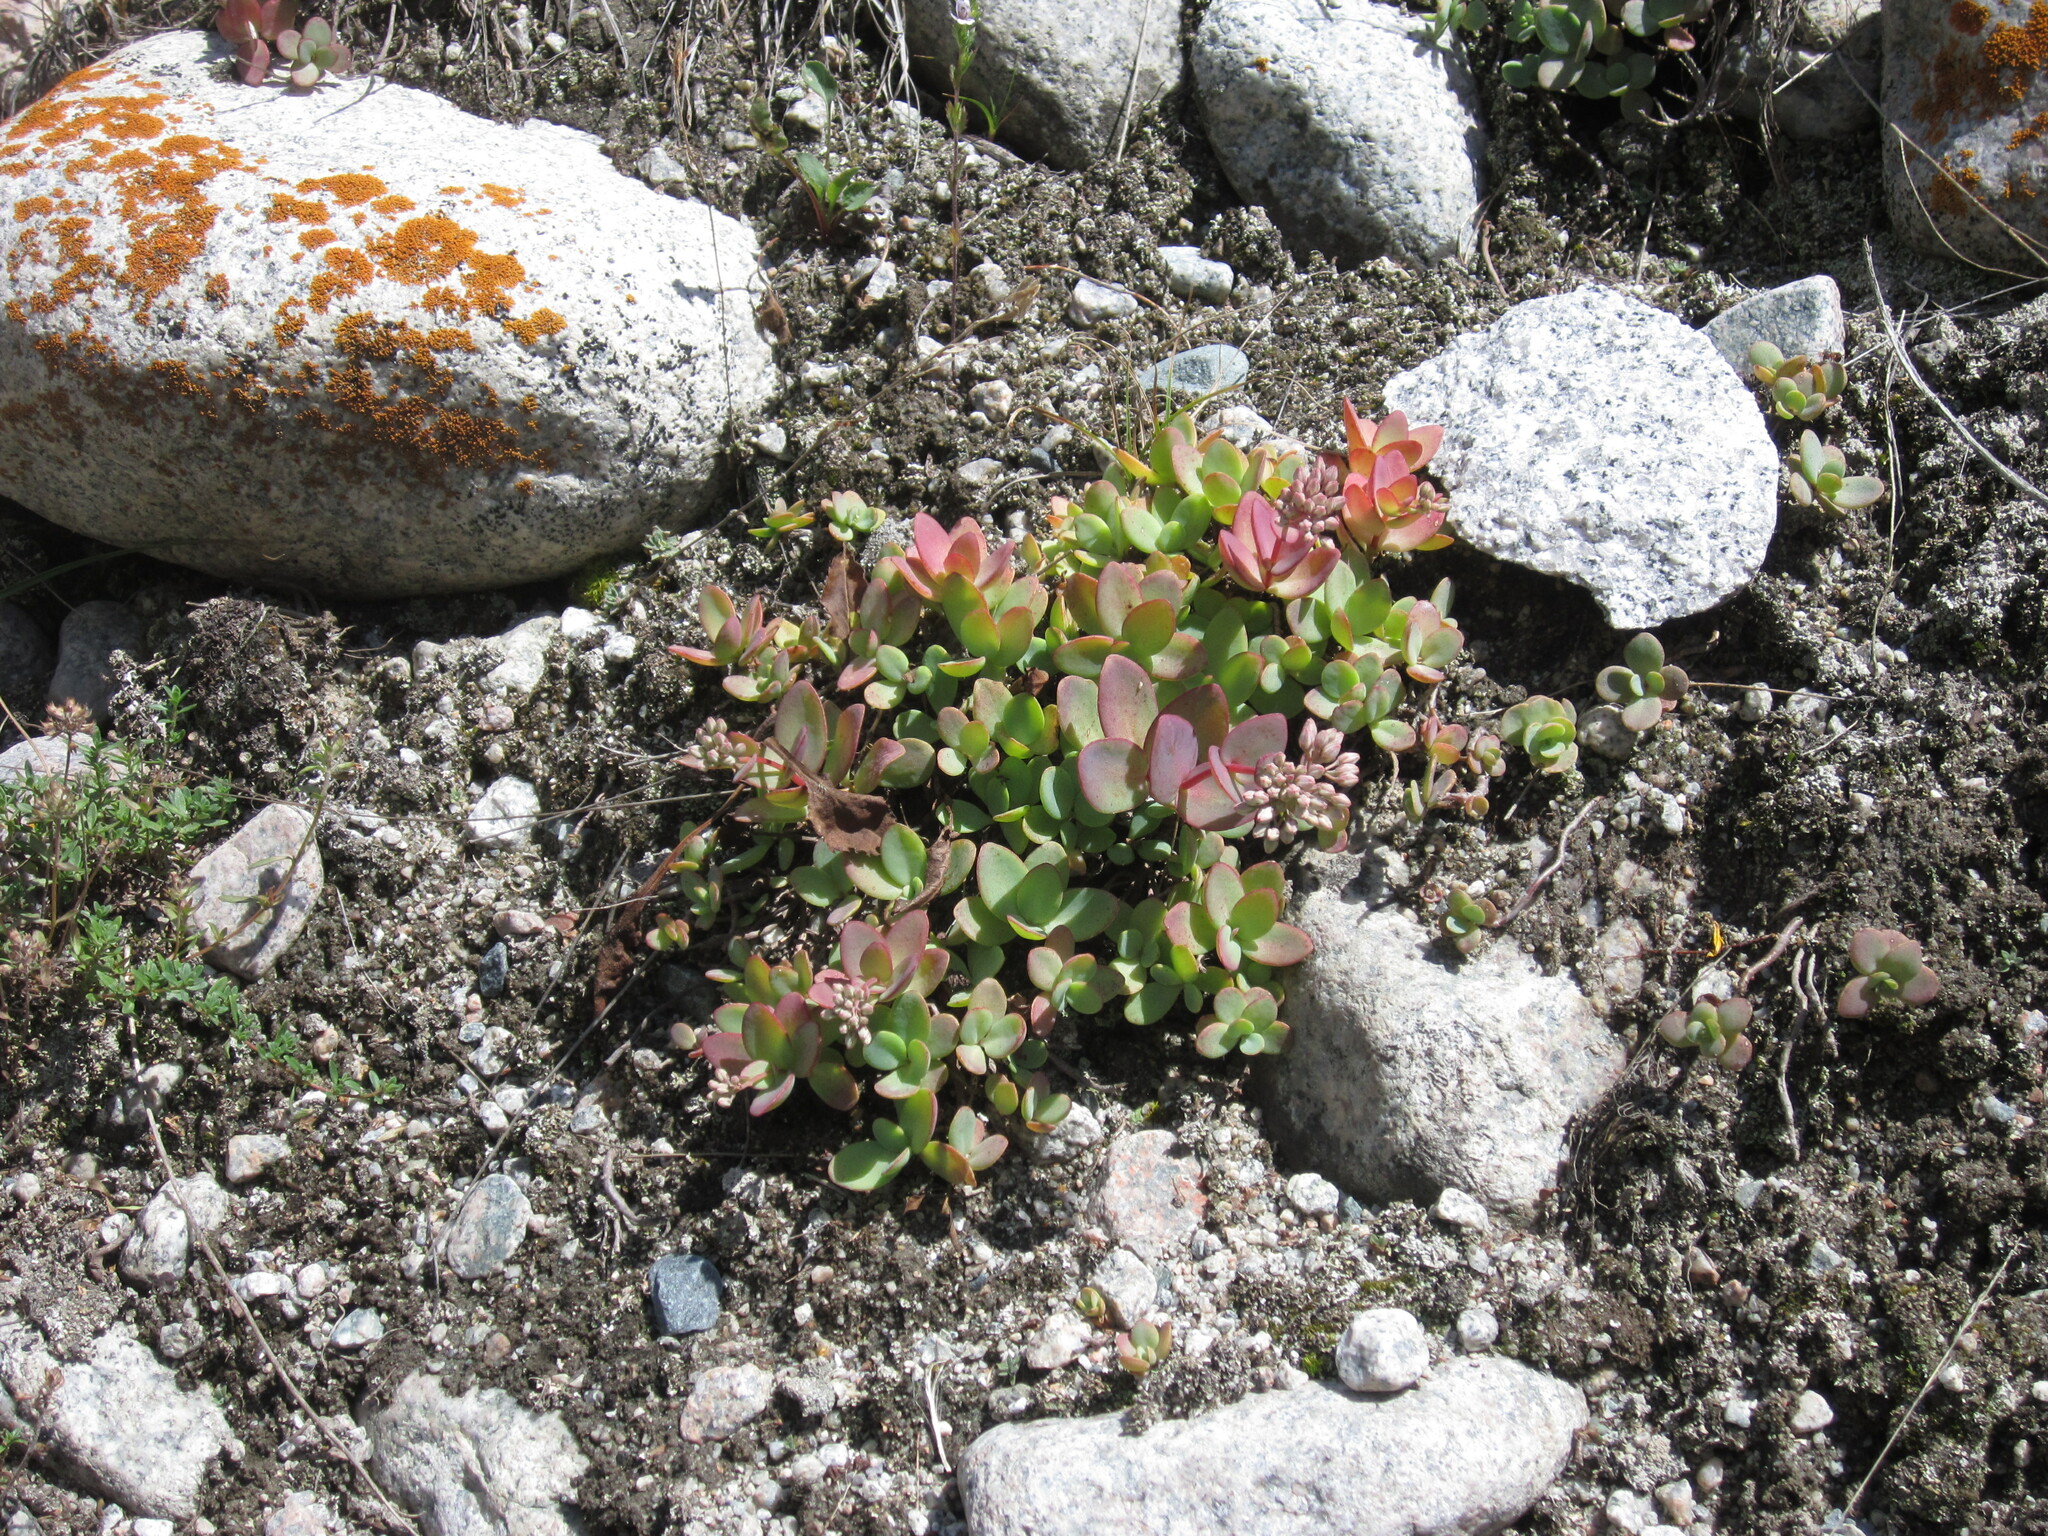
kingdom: Plantae
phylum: Tracheophyta
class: Magnoliopsida
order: Saxifragales
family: Crassulaceae
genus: Hylotelephium
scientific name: Hylotelephium ewersii
